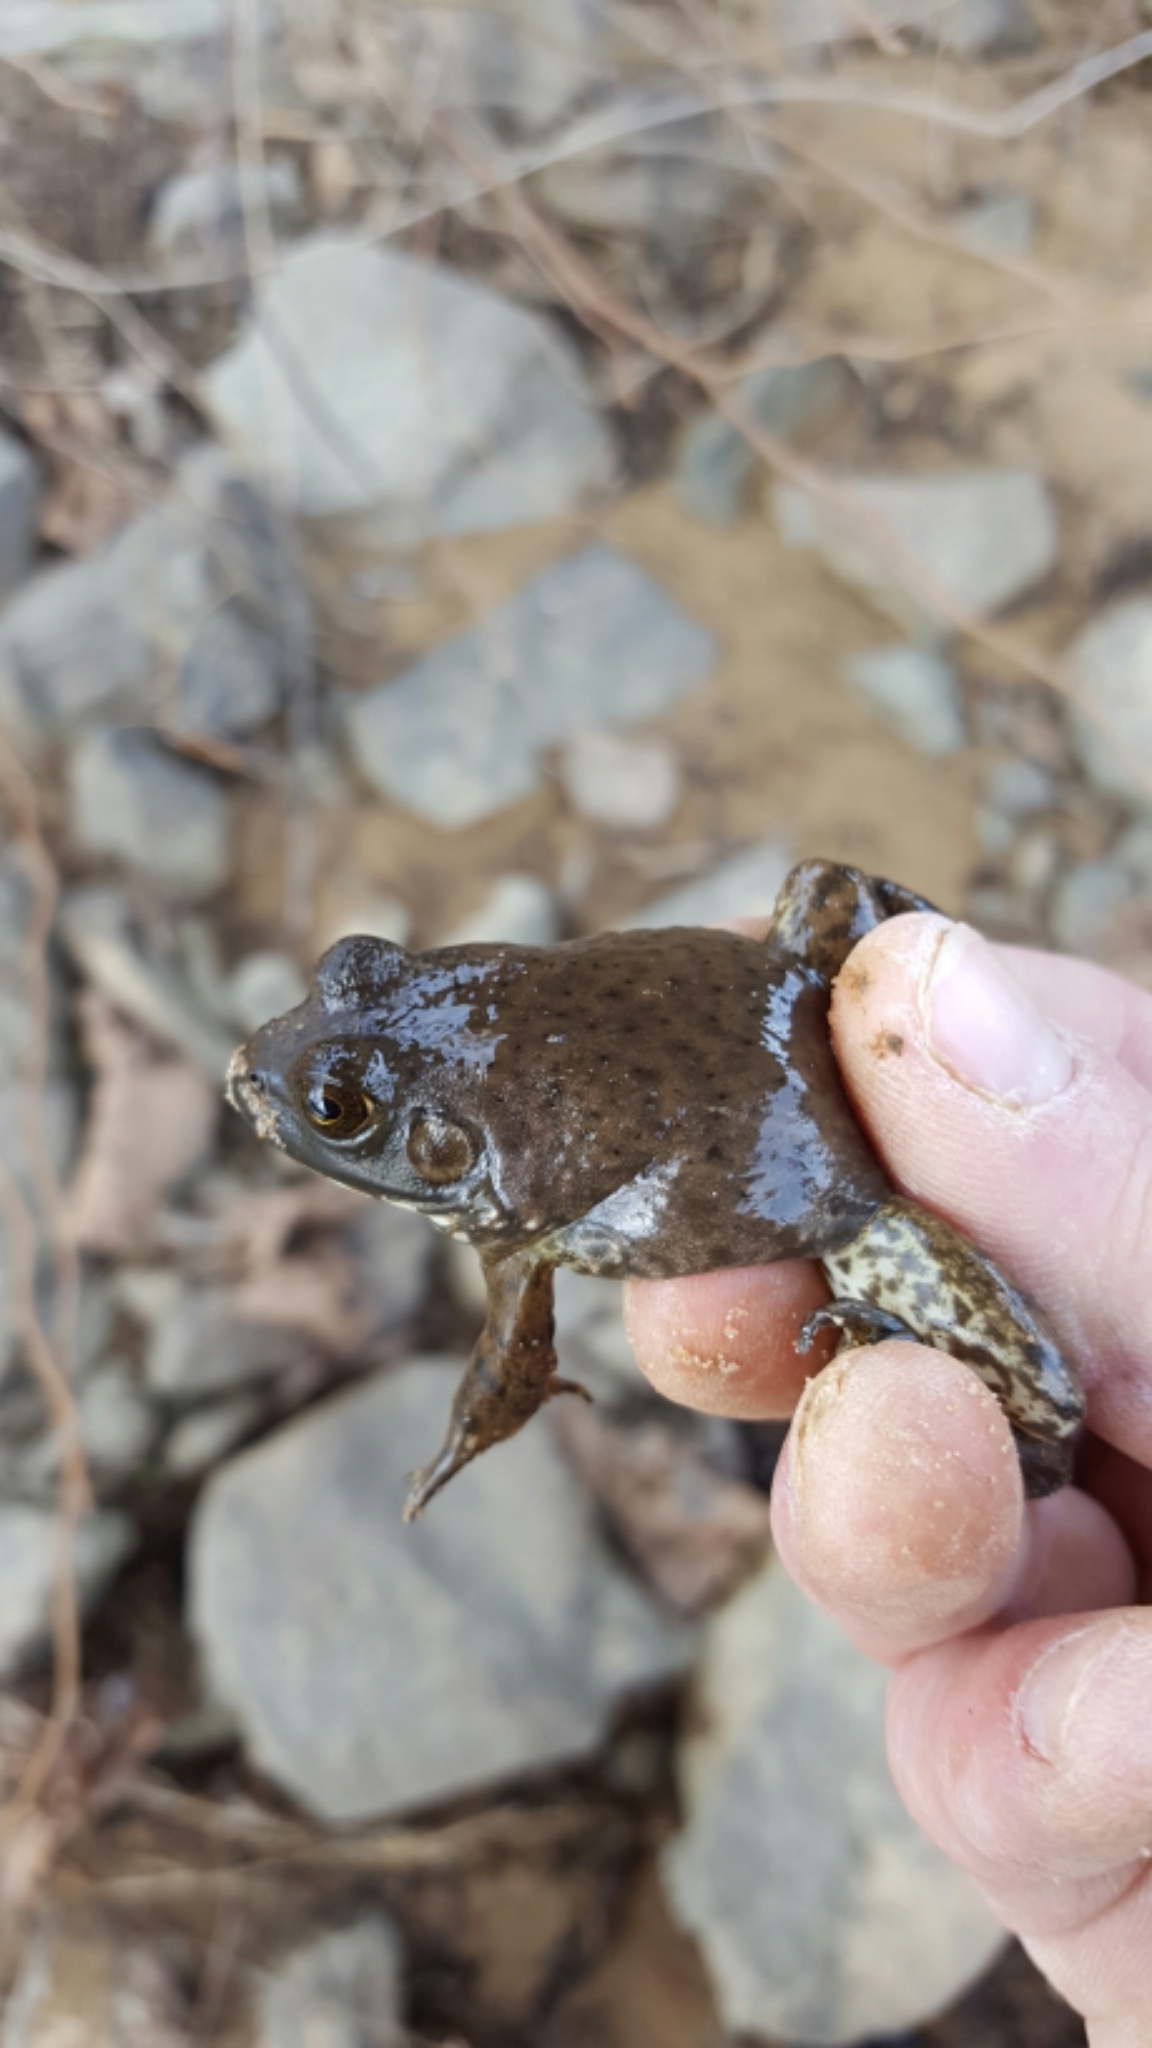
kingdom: Animalia
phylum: Chordata
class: Amphibia
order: Anura
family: Ranidae
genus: Lithobates
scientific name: Lithobates catesbeianus
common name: American bullfrog
